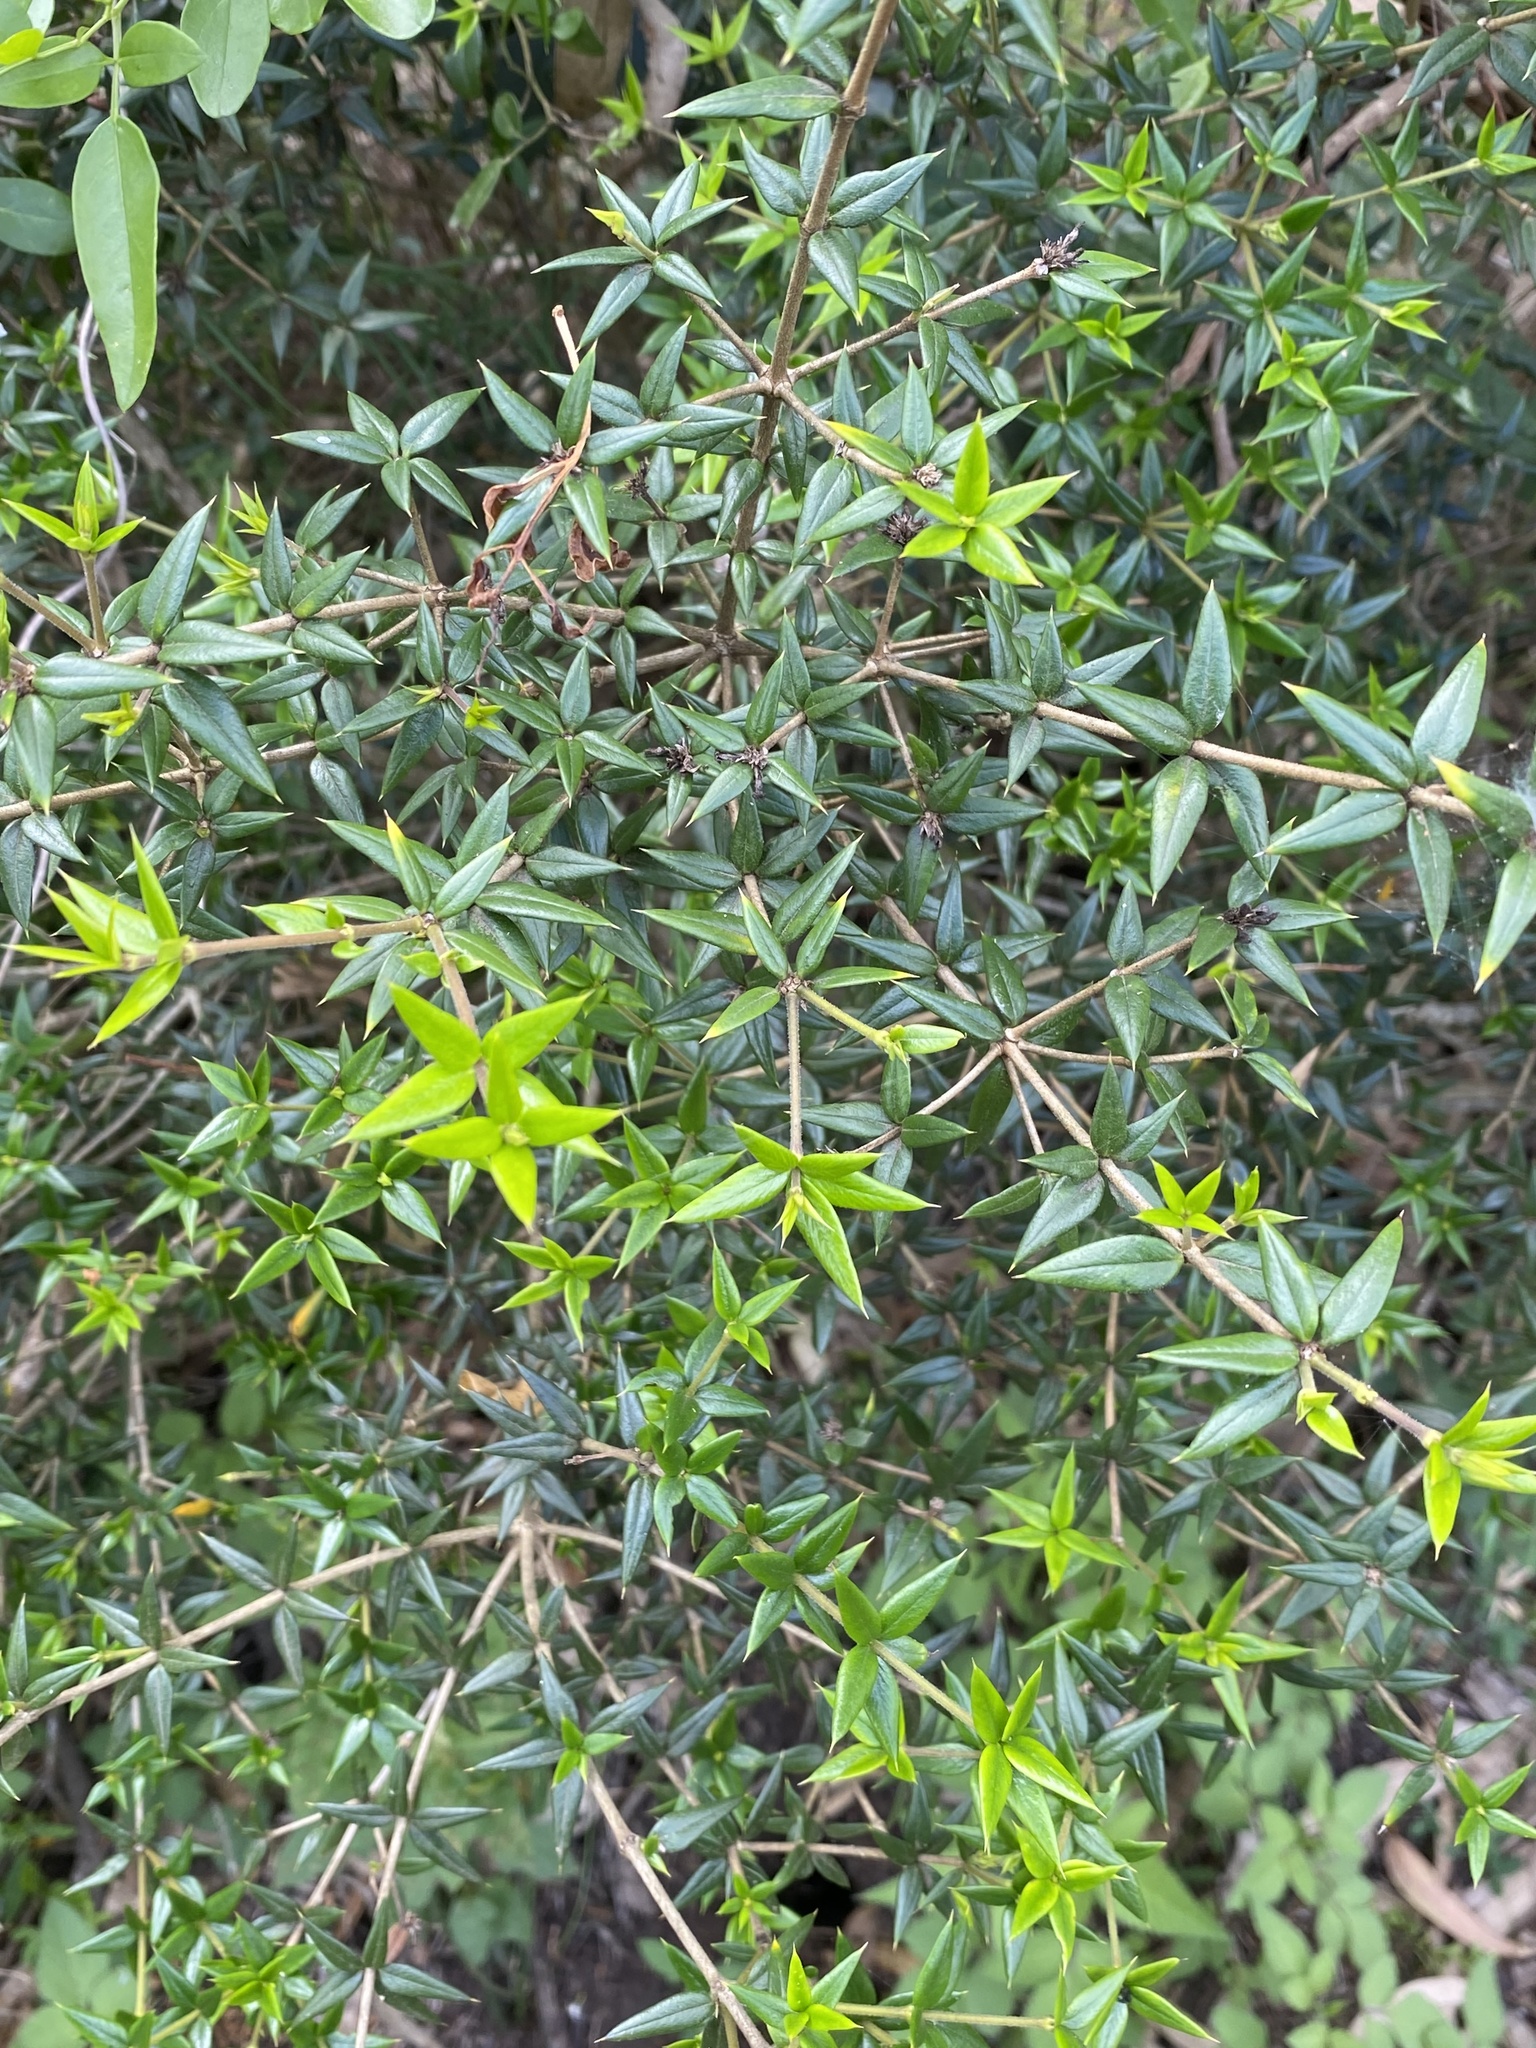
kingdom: Plantae
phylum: Tracheophyta
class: Magnoliopsida
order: Gentianales
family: Apocynaceae
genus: Alyxia
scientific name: Alyxia ruscifolia
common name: Chainfruit
